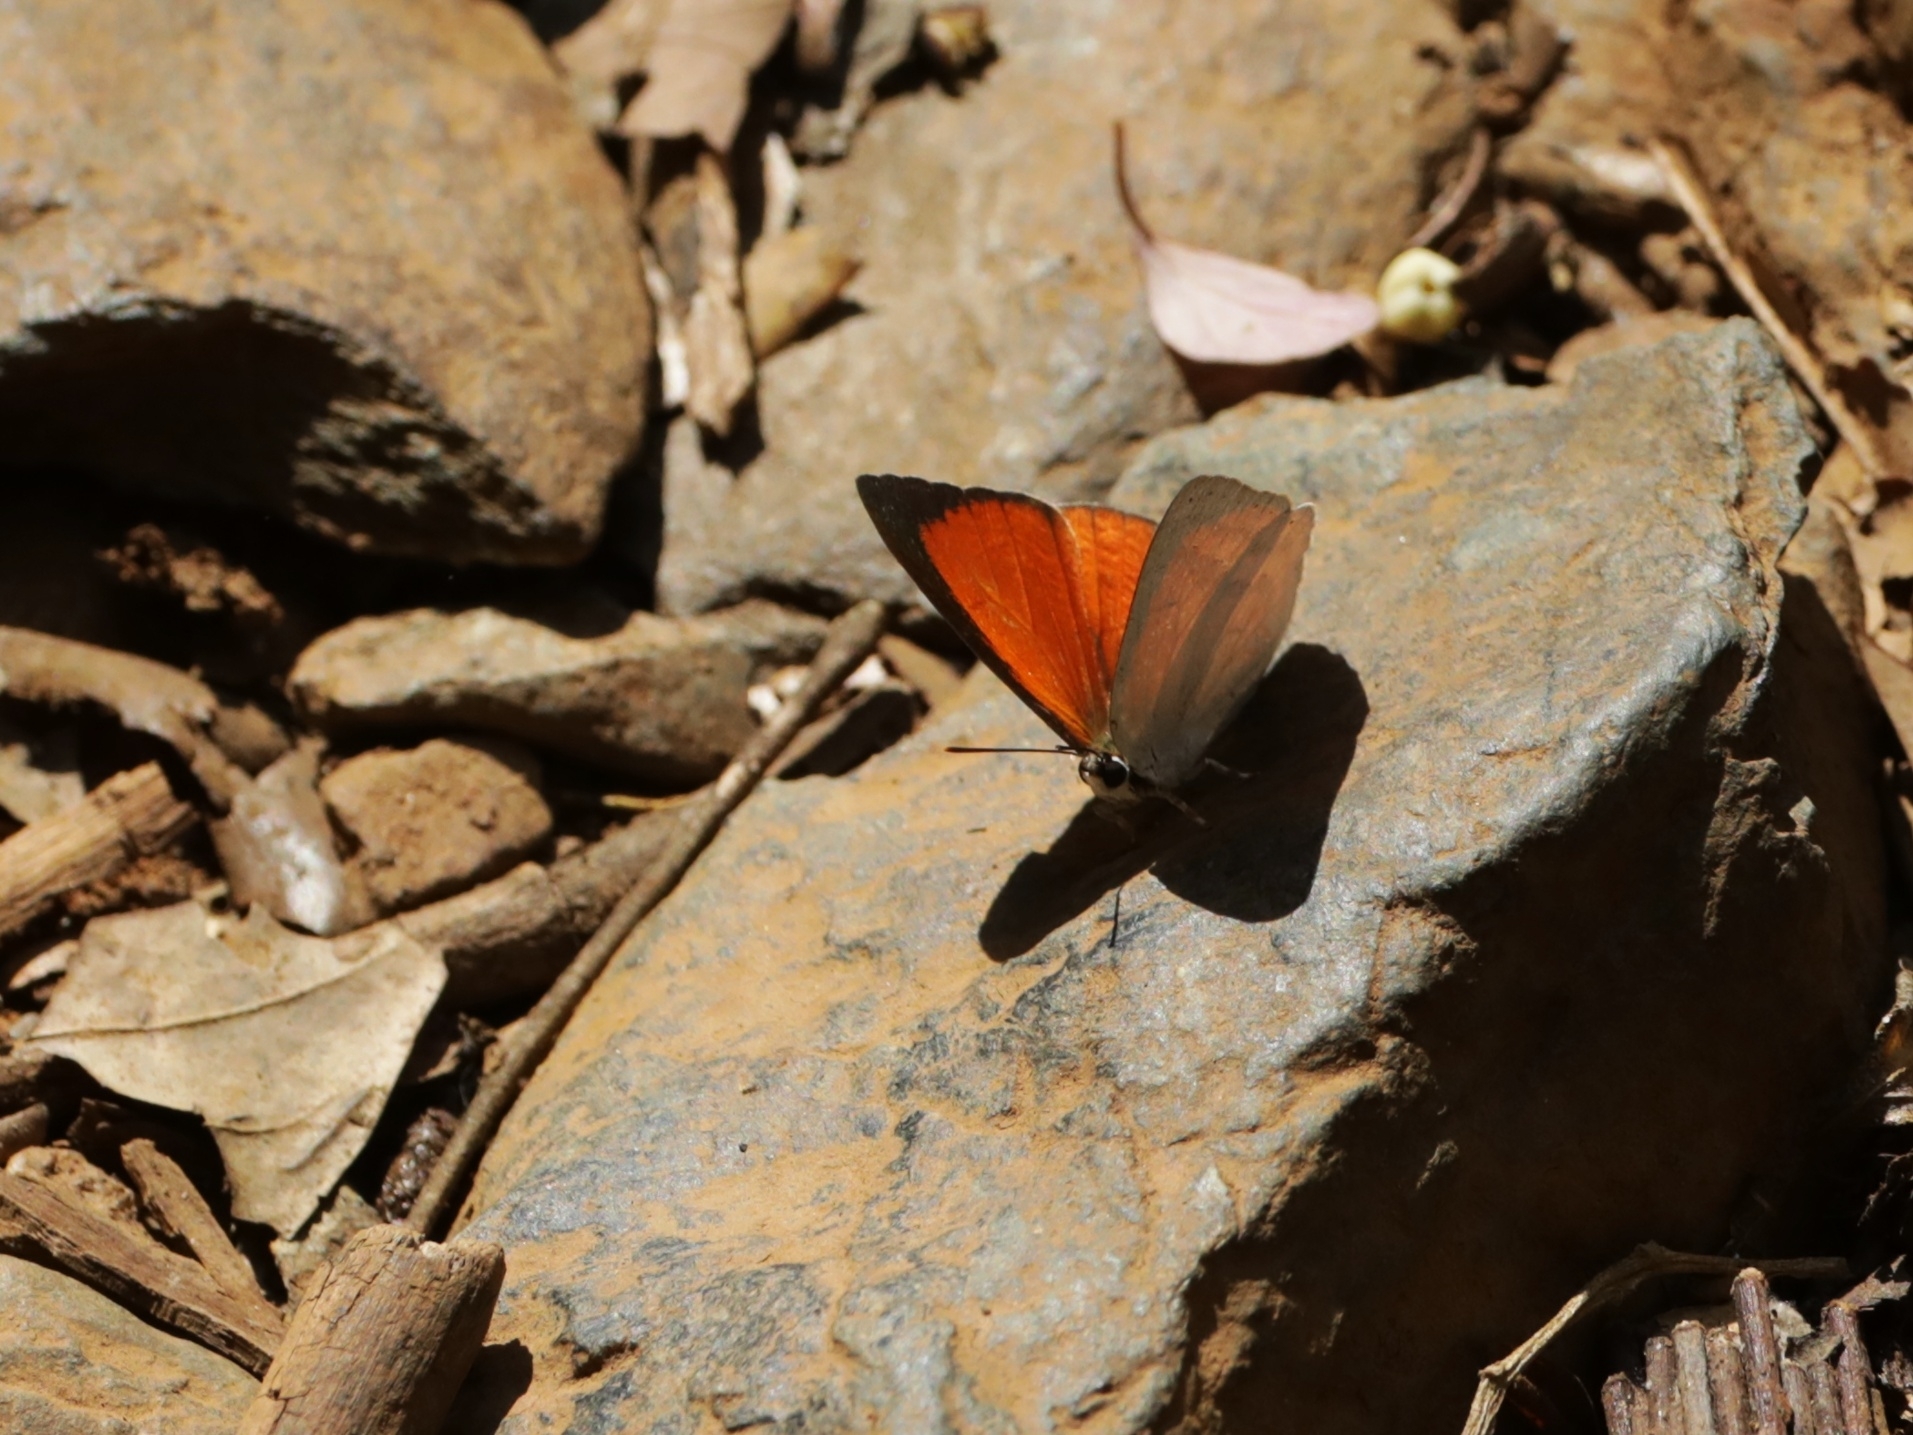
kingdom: Animalia
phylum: Arthropoda
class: Insecta
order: Lepidoptera
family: Lycaenidae
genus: Curetis
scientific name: Curetis thetis
